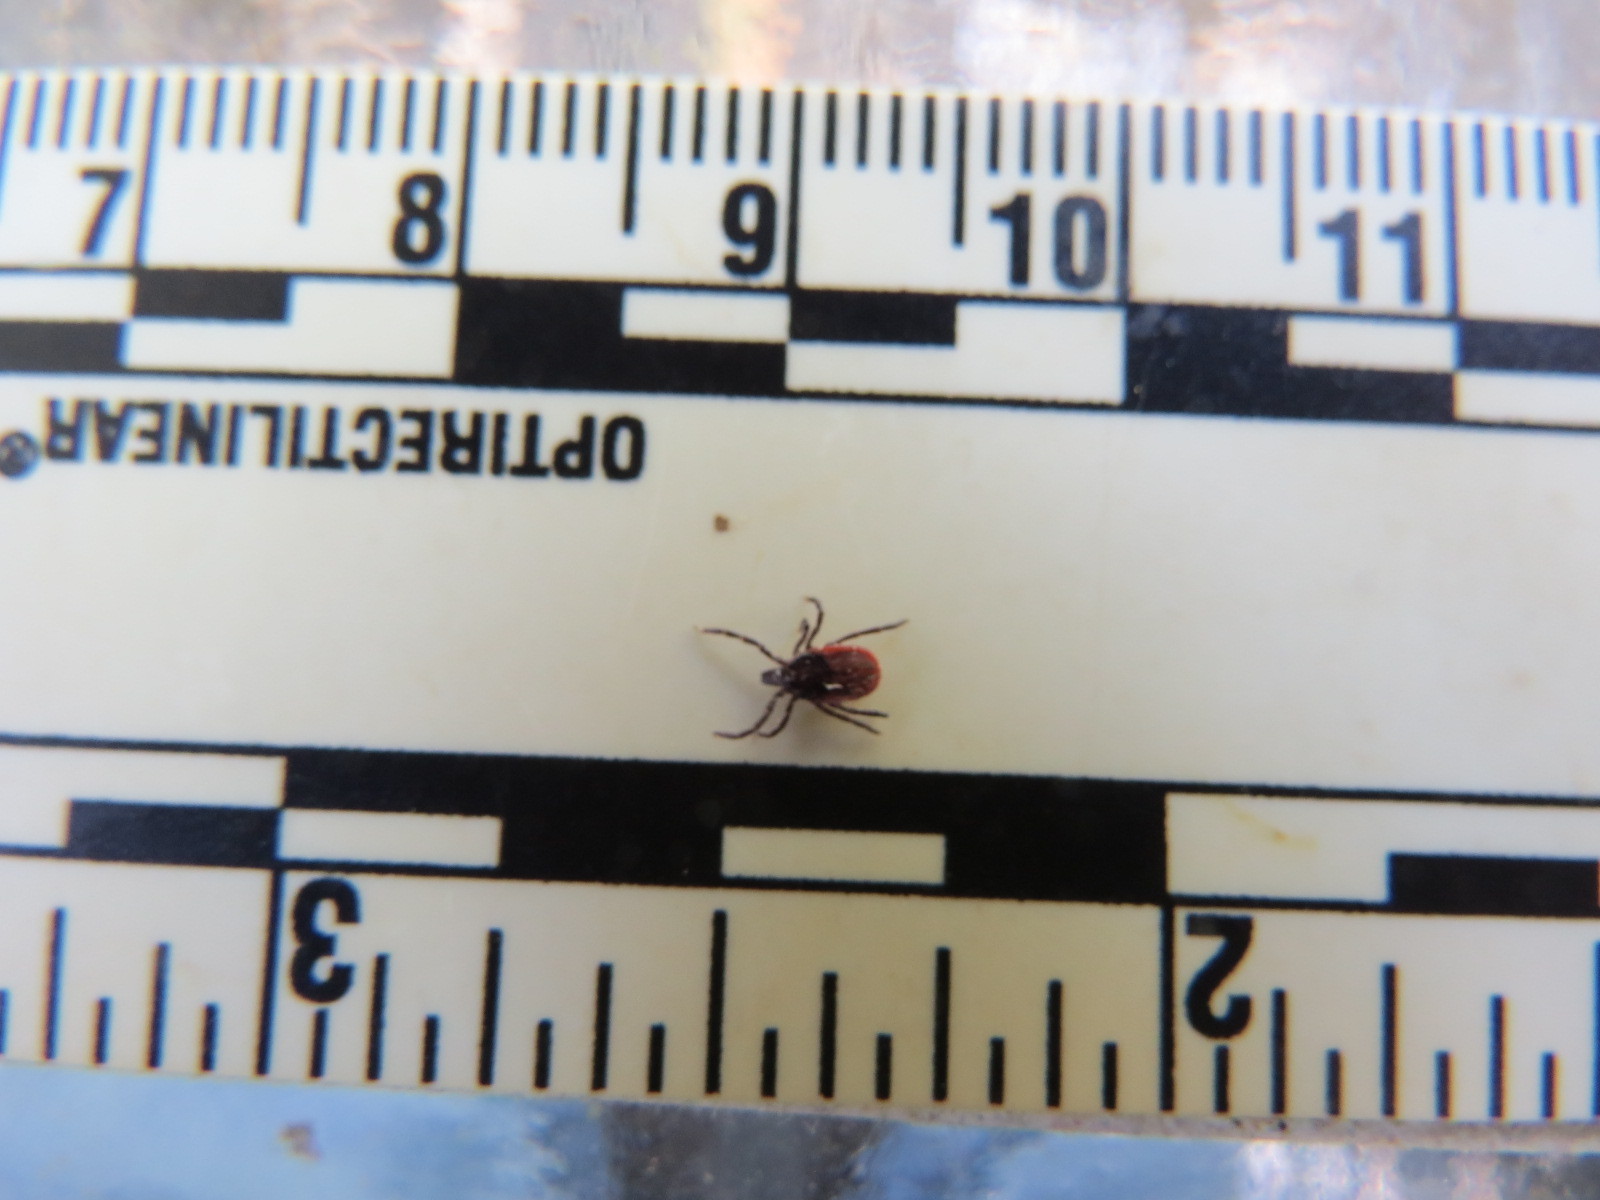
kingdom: Animalia
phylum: Arthropoda
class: Arachnida
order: Ixodida
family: Ixodidae
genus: Ixodes
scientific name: Ixodes pacificus
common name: California black-legged tick
